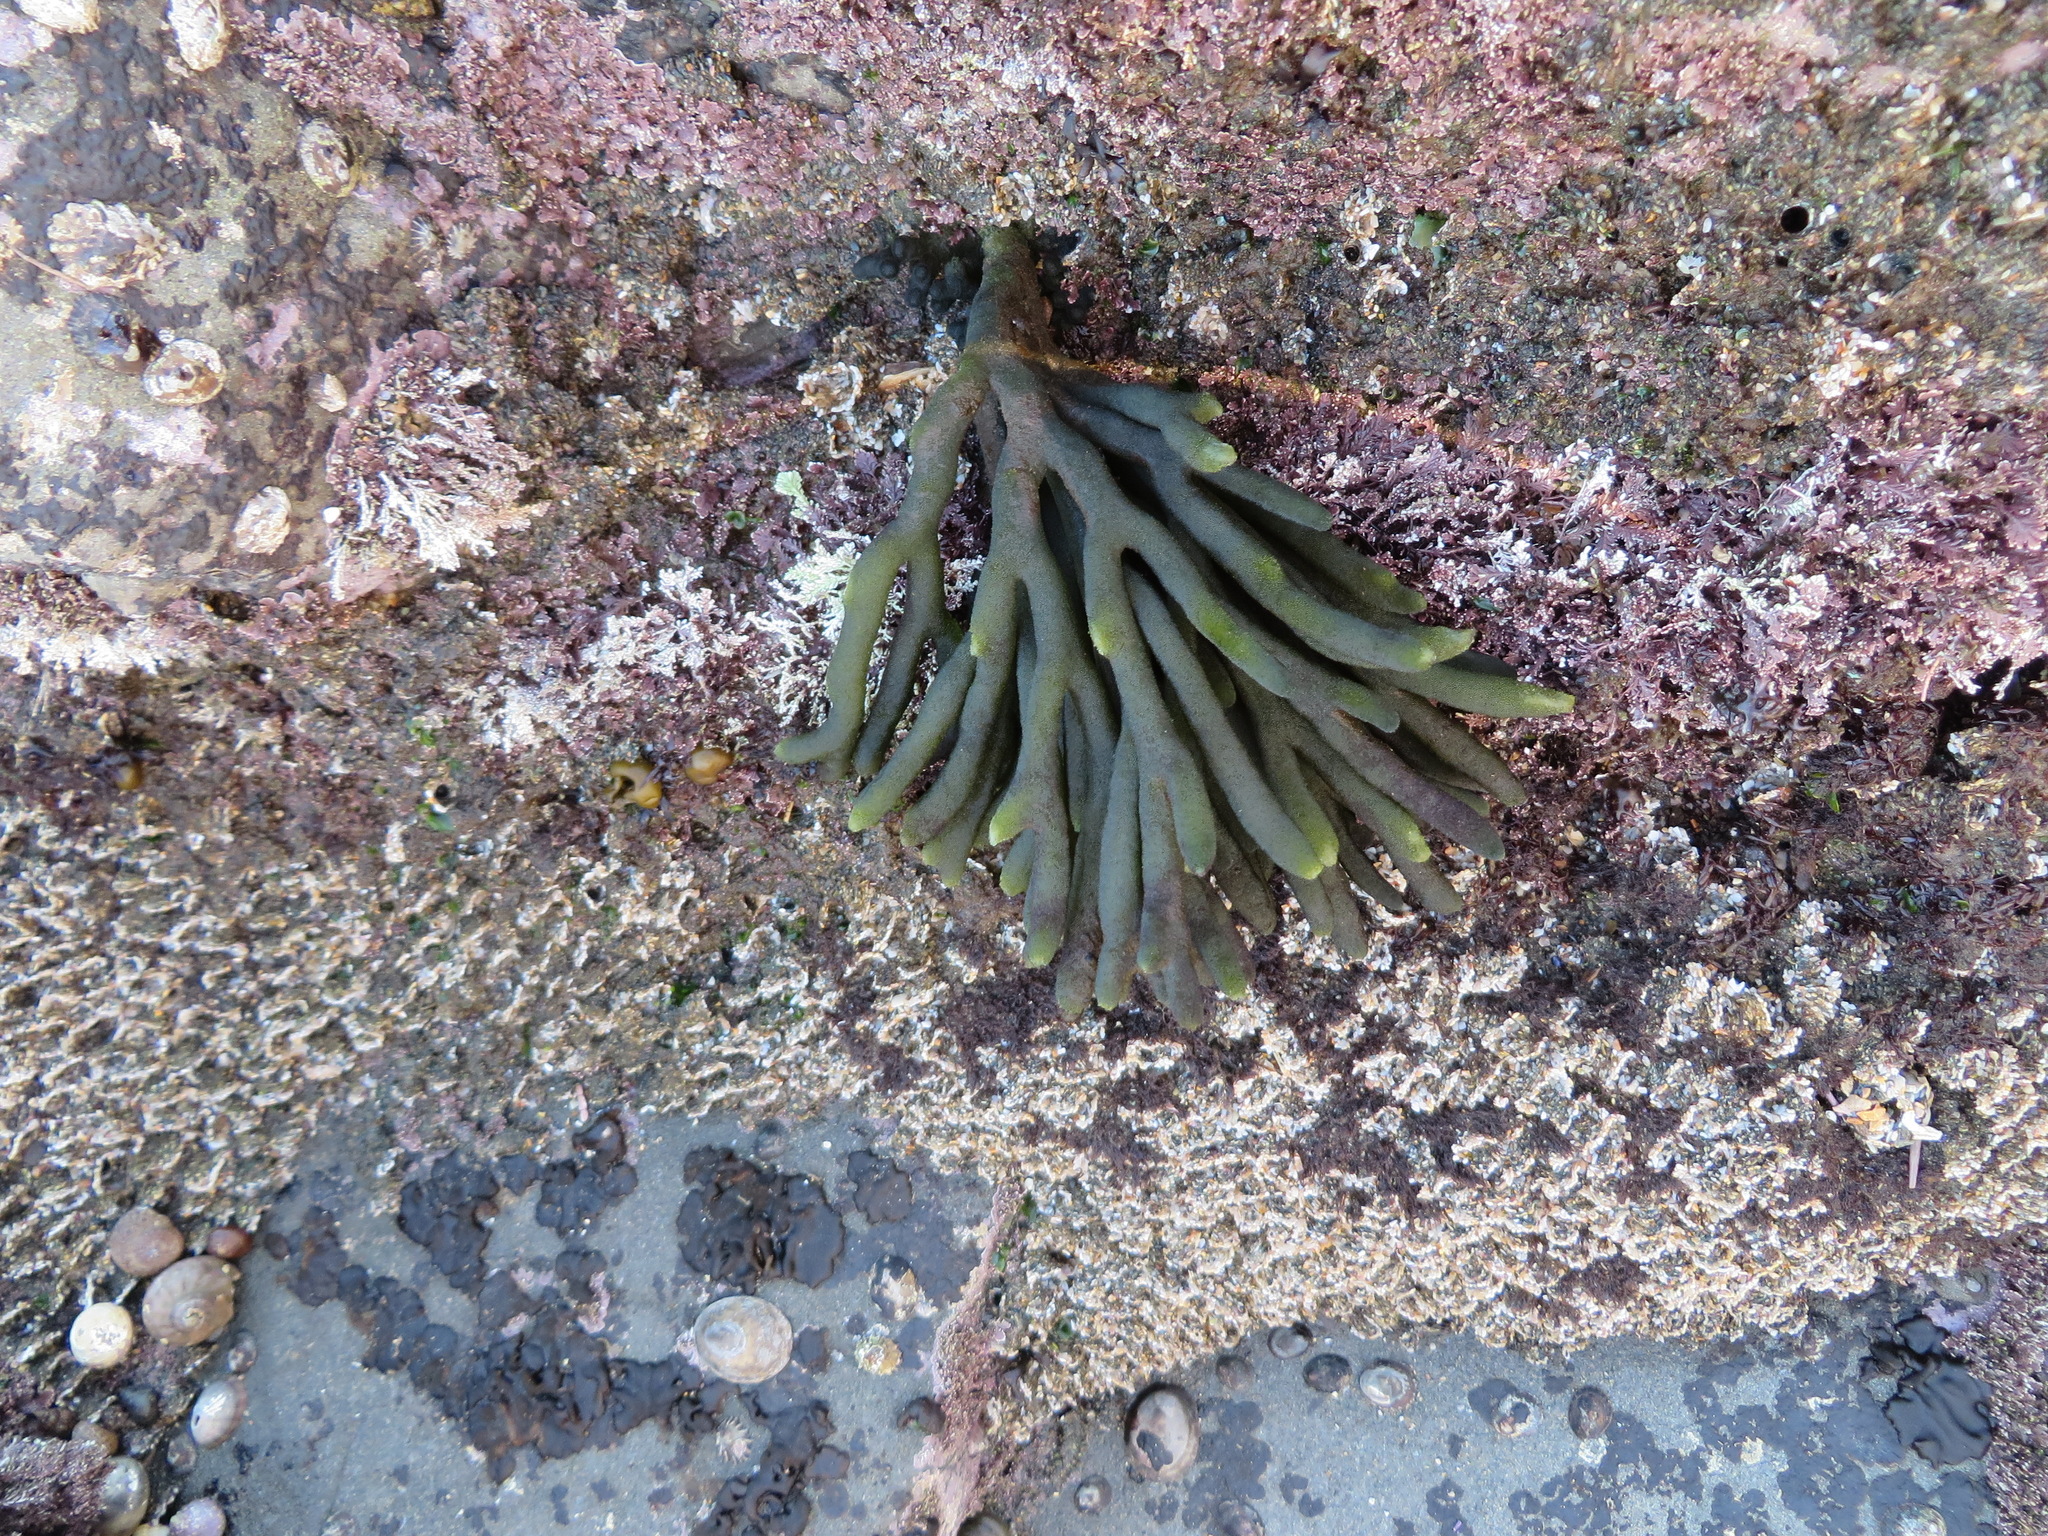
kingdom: Plantae
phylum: Chlorophyta
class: Ulvophyceae
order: Bryopsidales
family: Codiaceae
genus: Codium
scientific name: Codium fragile
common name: Dead man's fingers
